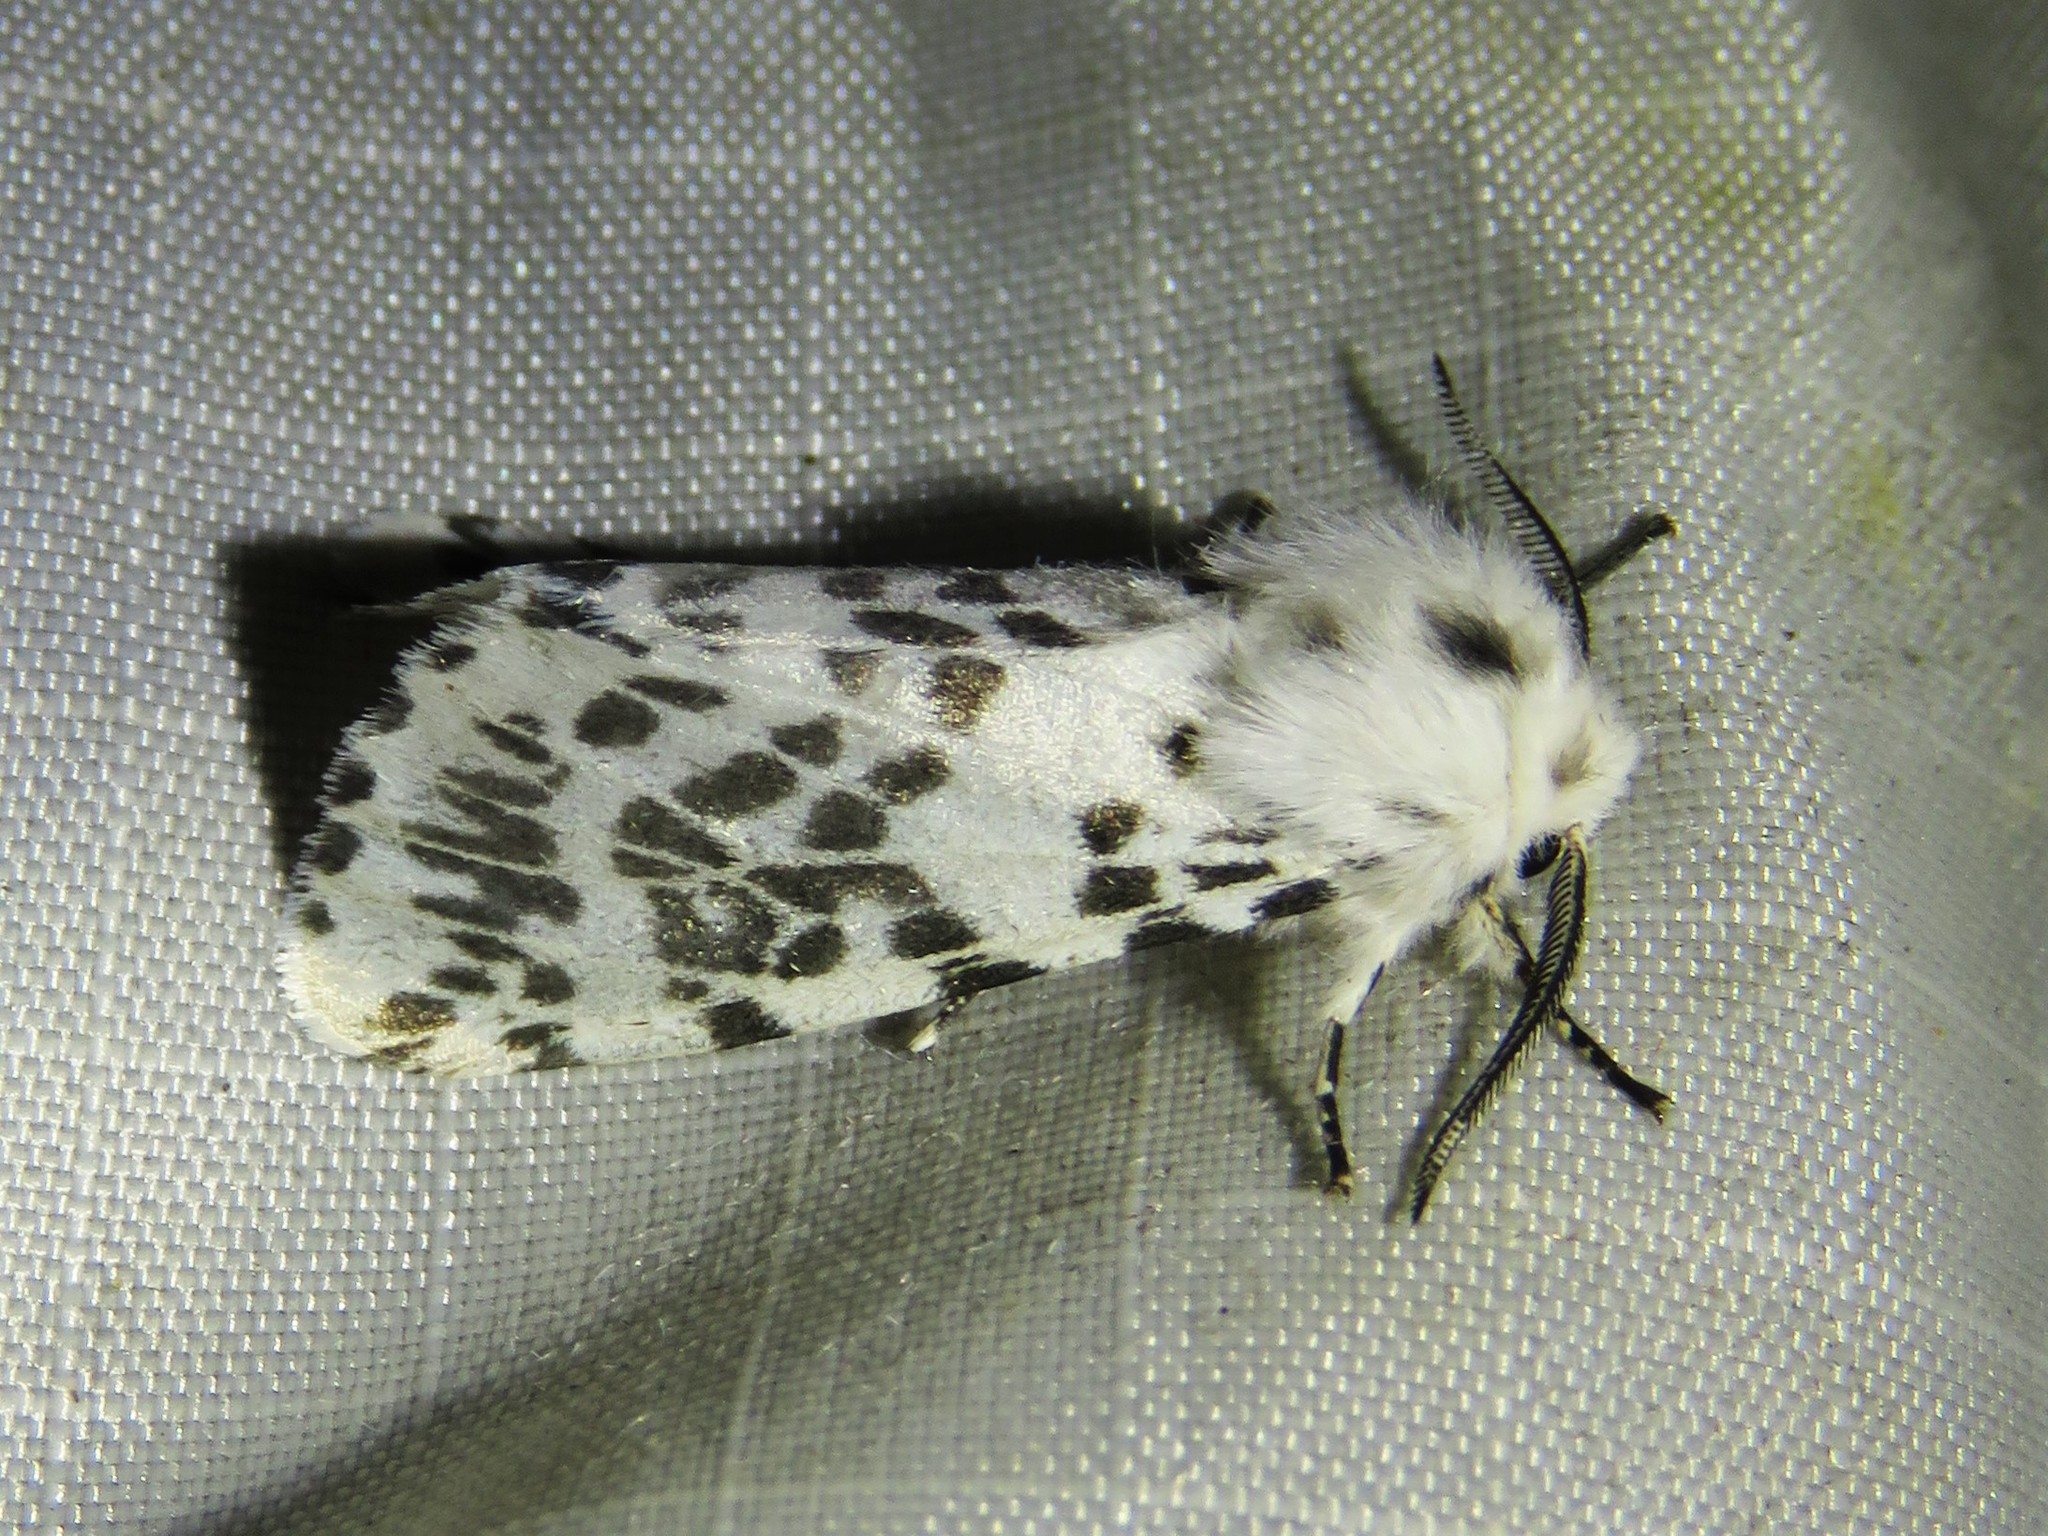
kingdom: Animalia
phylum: Arthropoda
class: Insecta
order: Lepidoptera
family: Erebidae
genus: Hyphantria
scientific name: Hyphantria cunea
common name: American white moth
